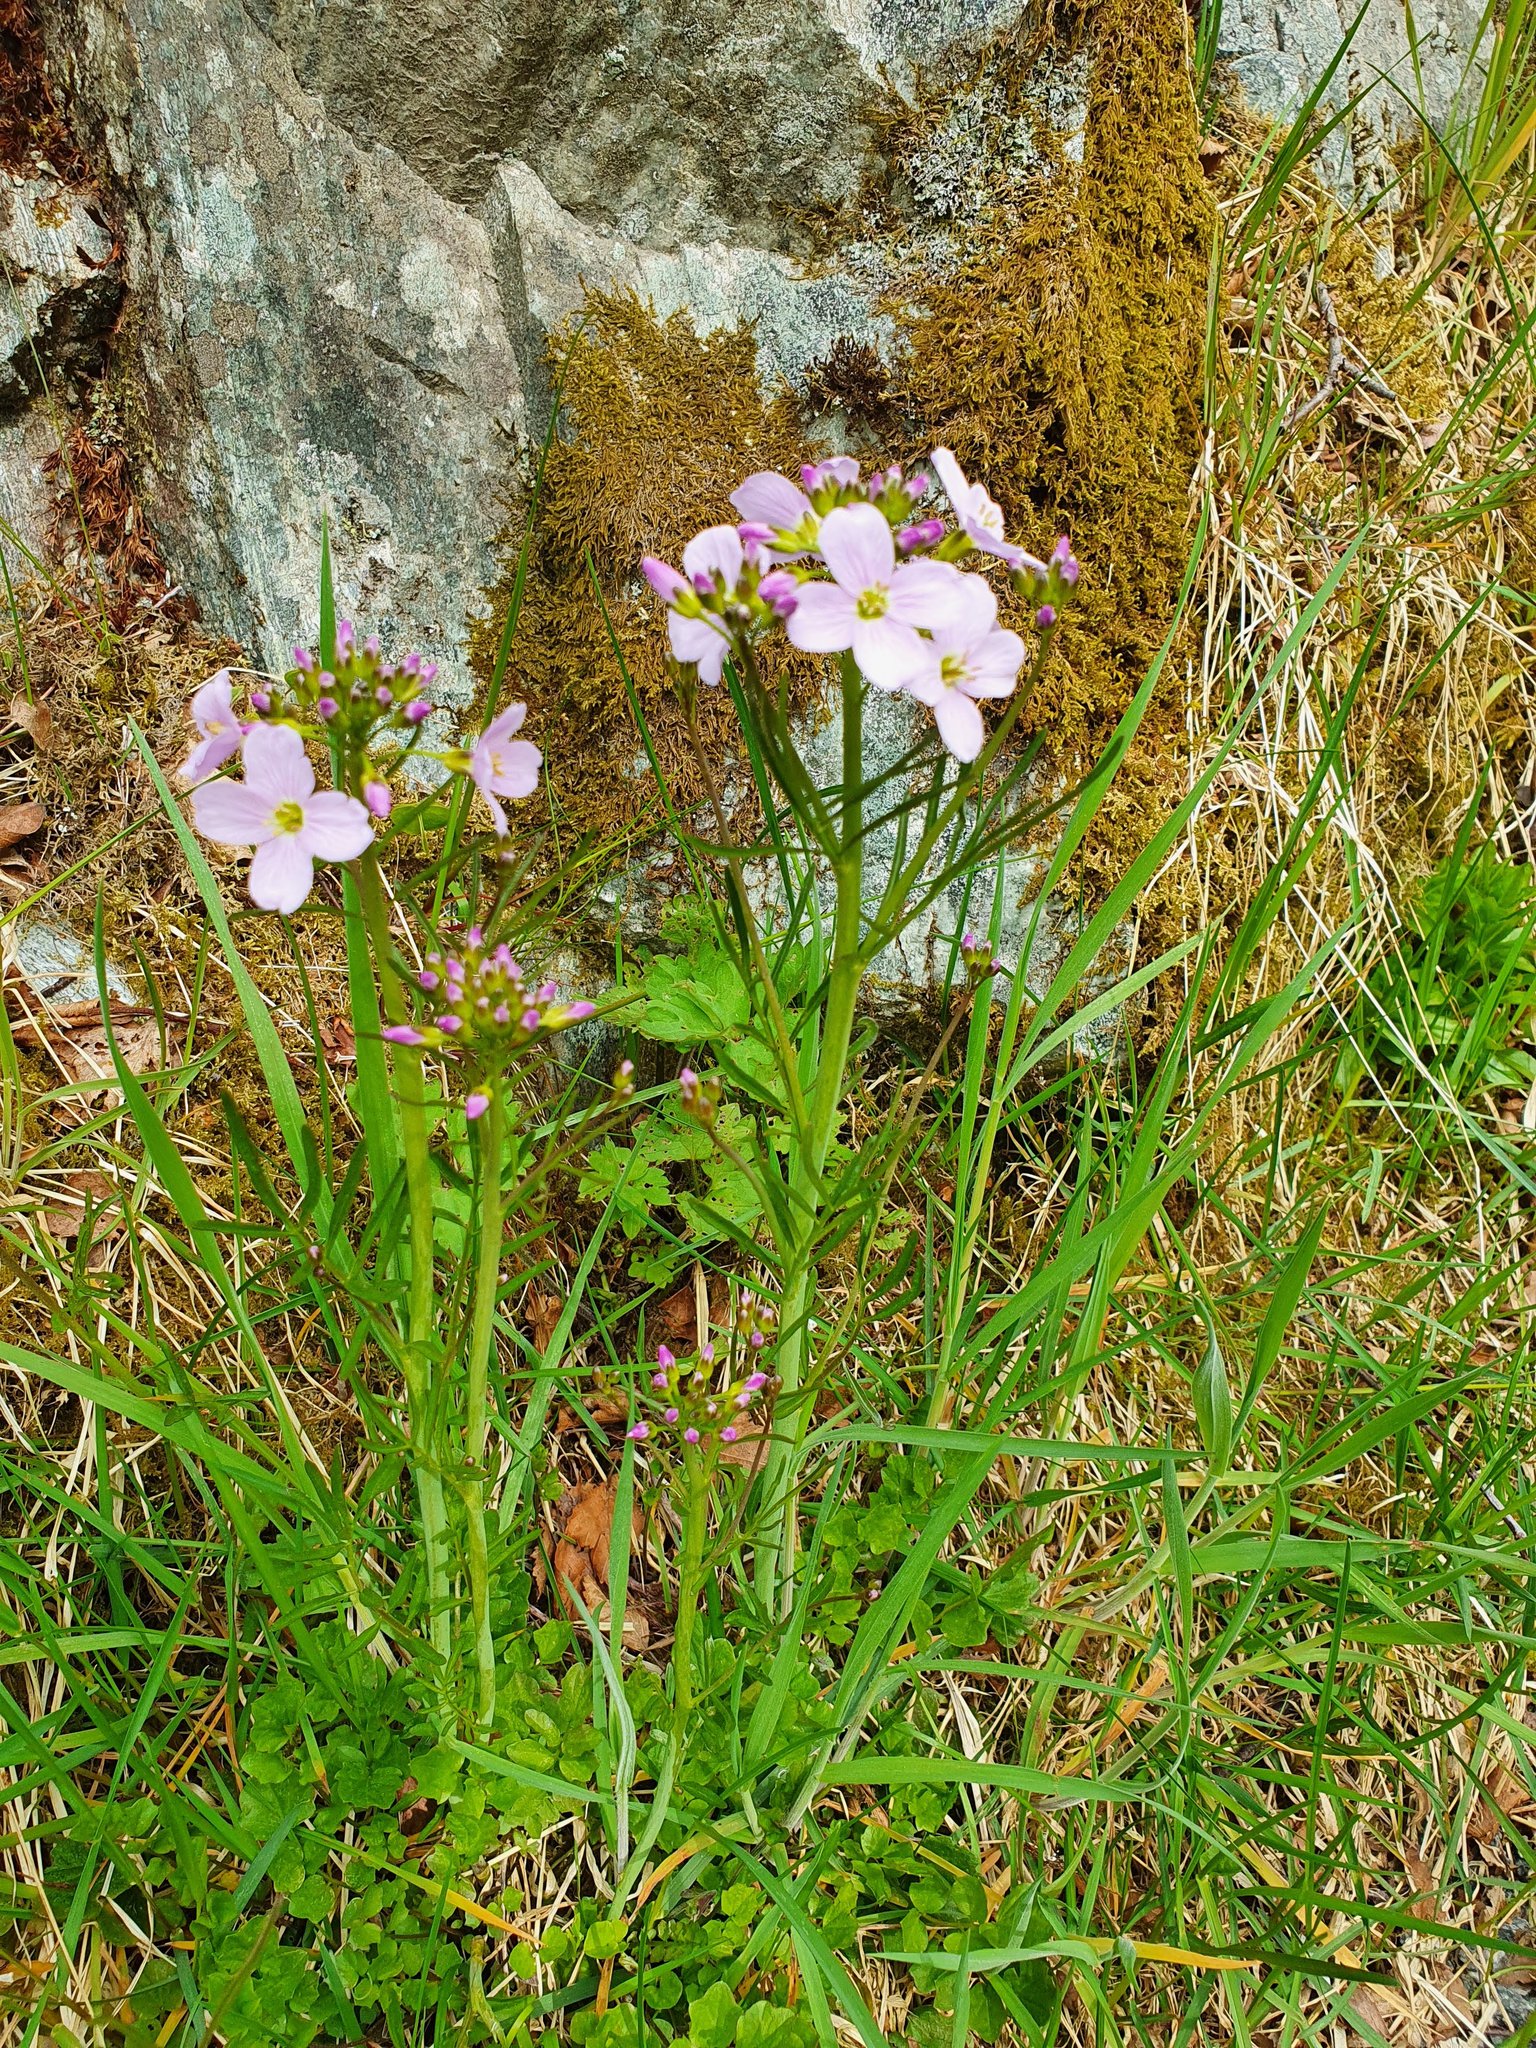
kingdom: Plantae
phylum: Tracheophyta
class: Magnoliopsida
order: Brassicales
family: Brassicaceae
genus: Cardamine
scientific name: Cardamine pratensis
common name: Cuckoo flower
